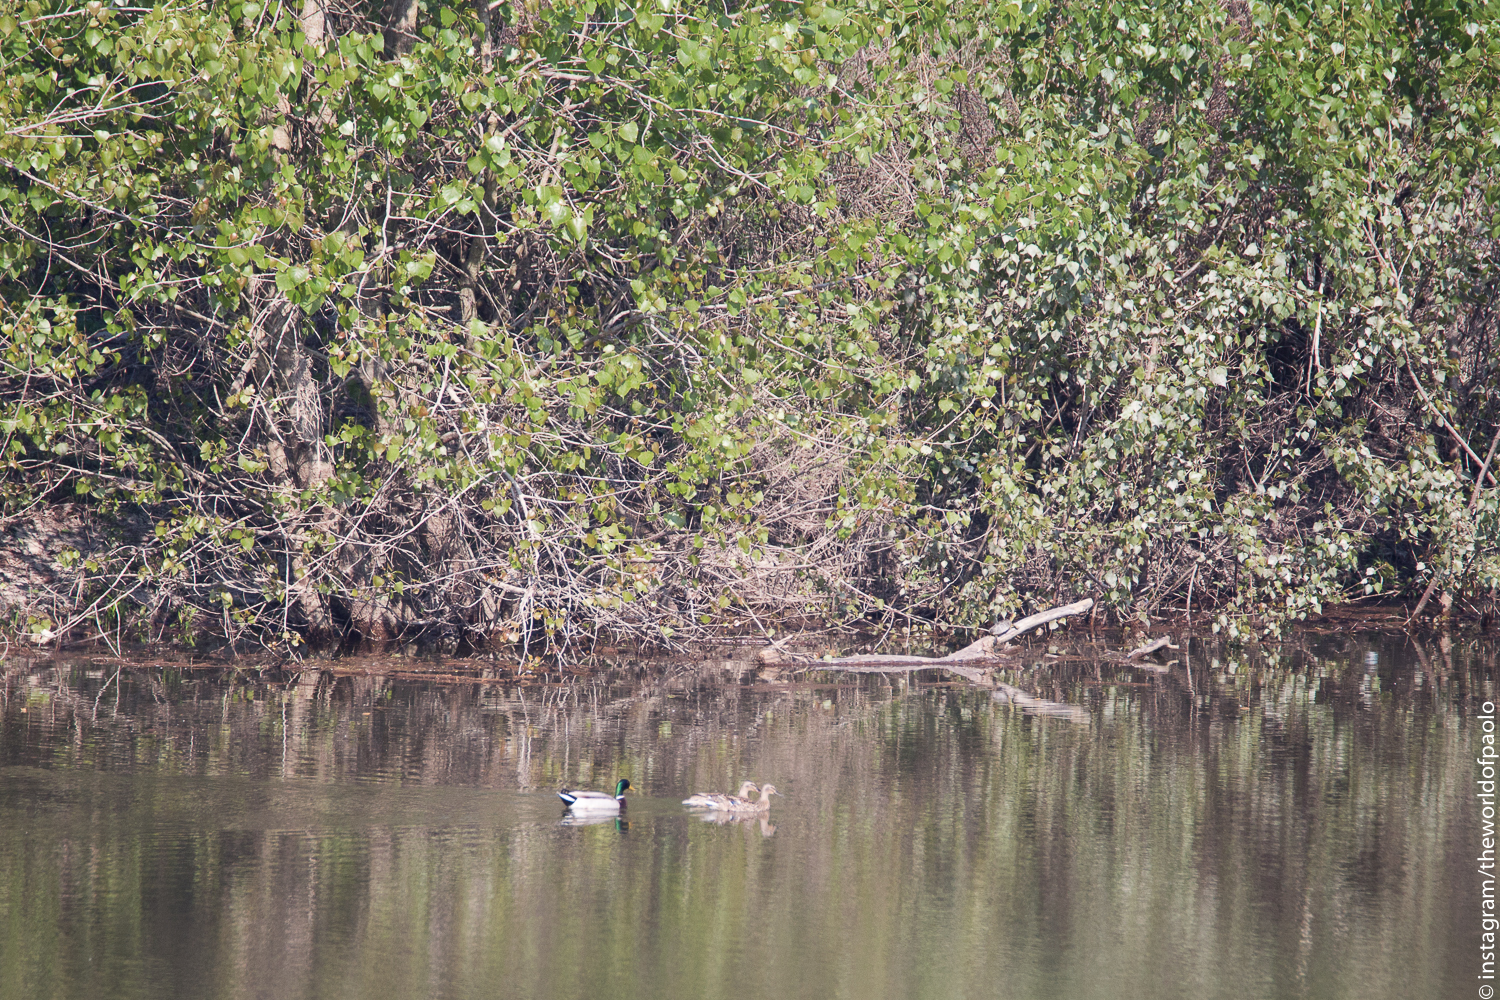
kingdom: Animalia
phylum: Chordata
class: Aves
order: Anseriformes
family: Anatidae
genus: Anas
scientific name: Anas platyrhynchos
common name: Mallard
